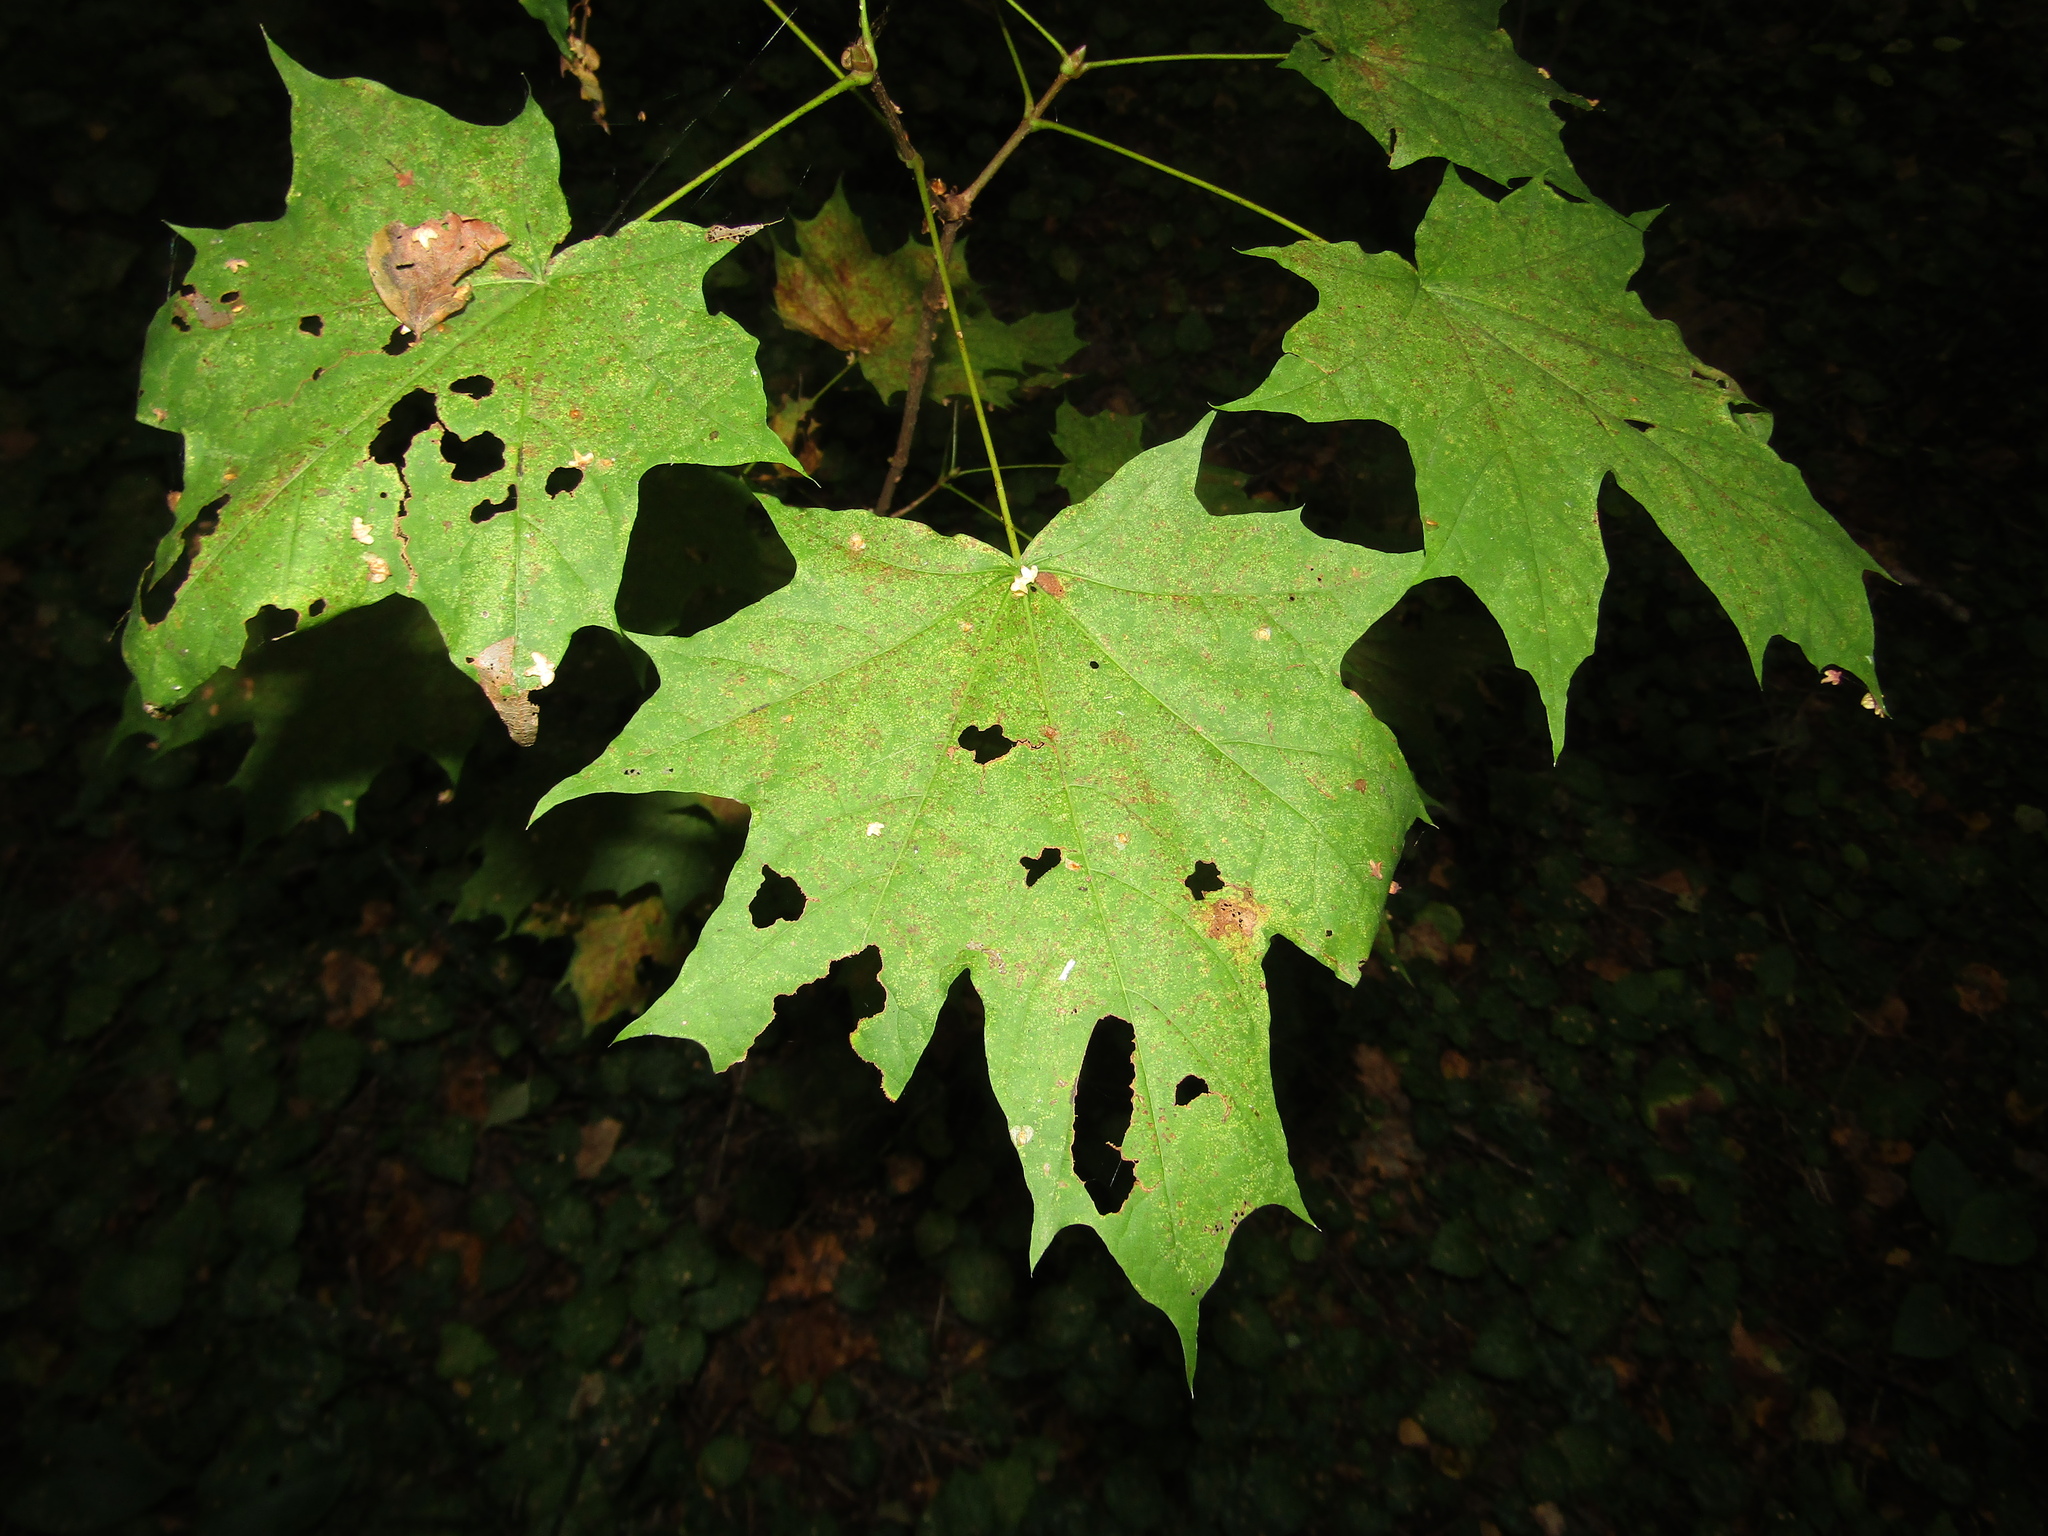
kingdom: Plantae
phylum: Tracheophyta
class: Magnoliopsida
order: Sapindales
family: Sapindaceae
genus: Acer
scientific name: Acer platanoides
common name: Norway maple
